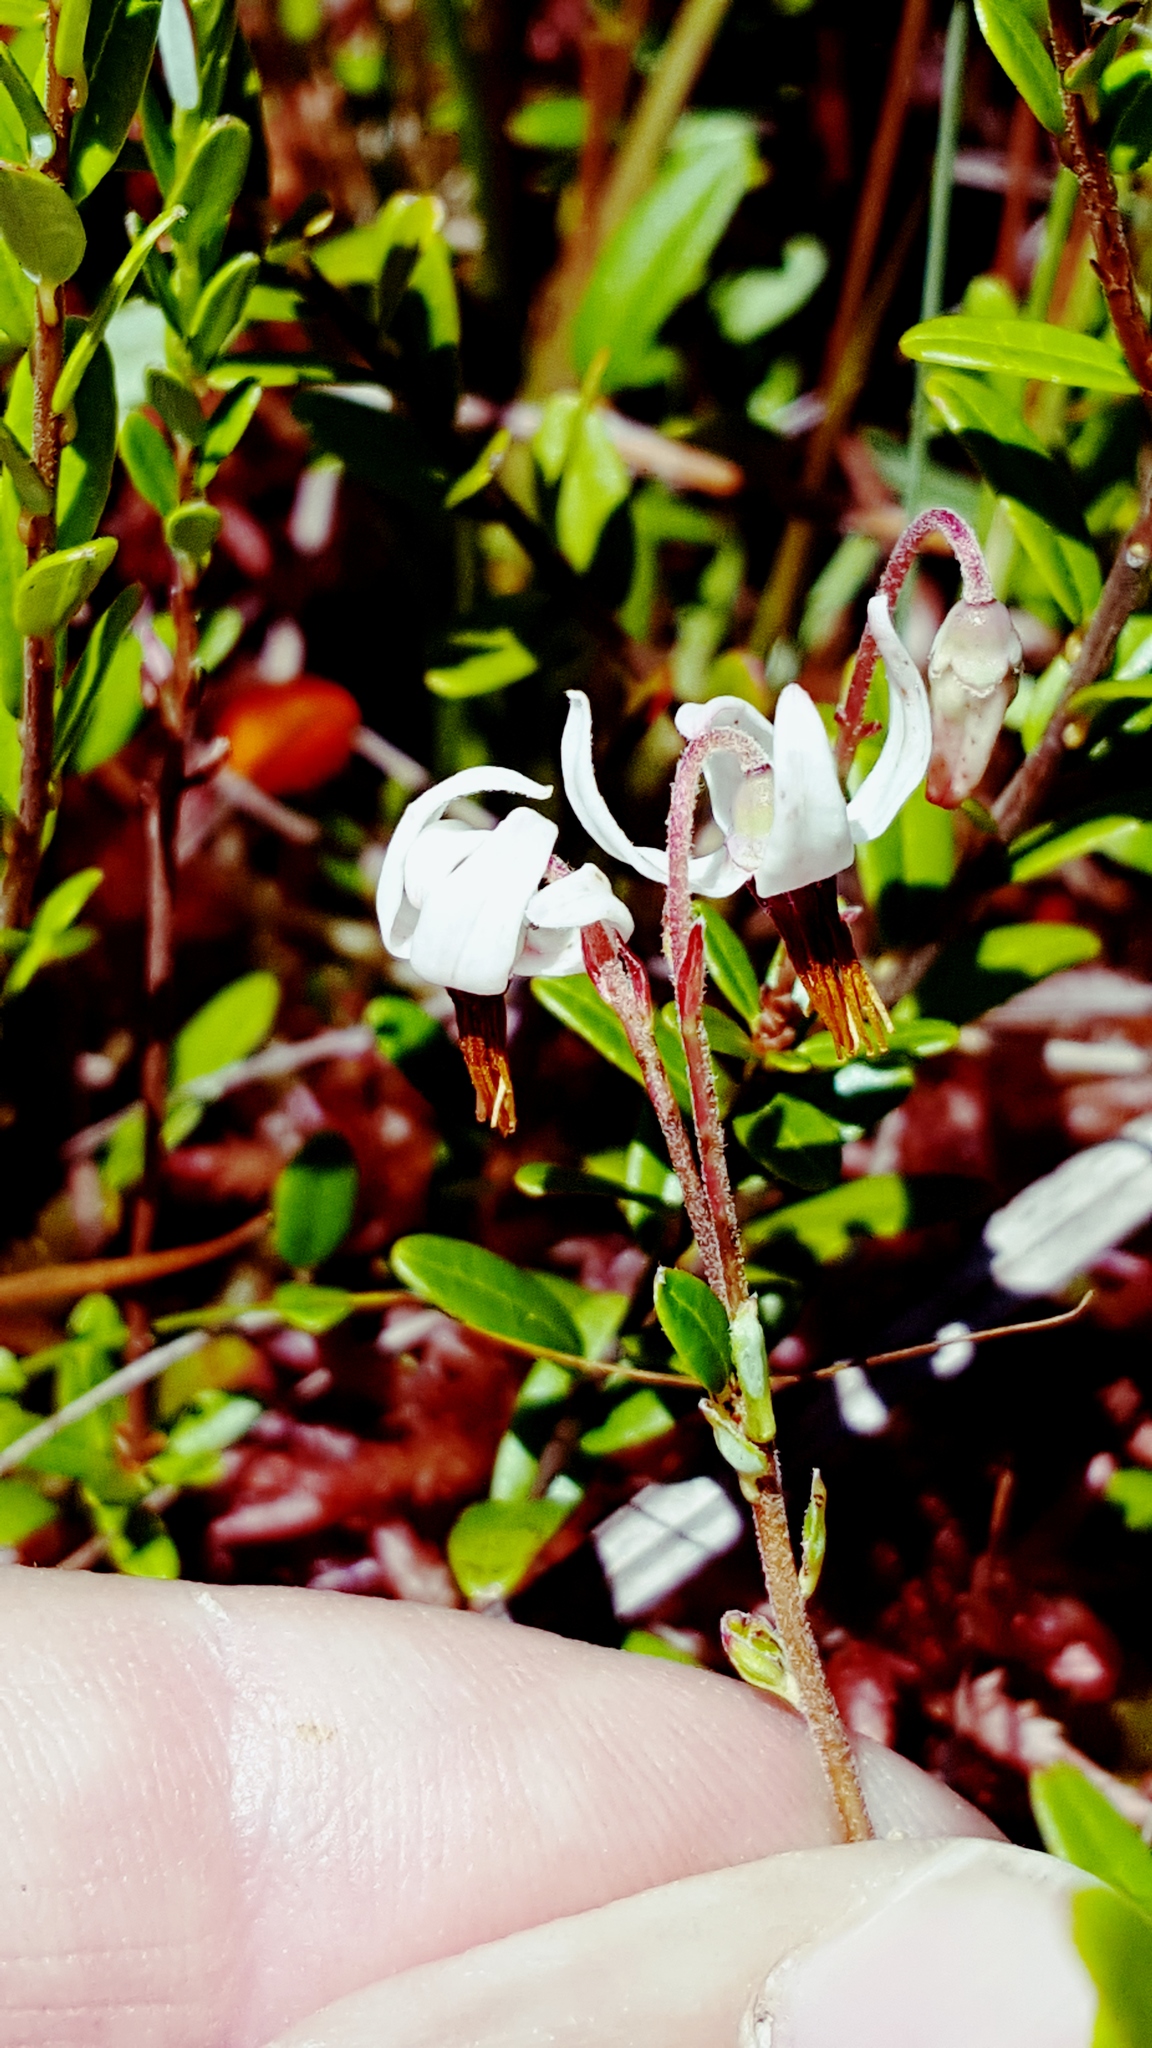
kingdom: Plantae
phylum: Tracheophyta
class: Magnoliopsida
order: Ericales
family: Ericaceae
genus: Vaccinium
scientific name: Vaccinium macrocarpon
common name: American cranberry
